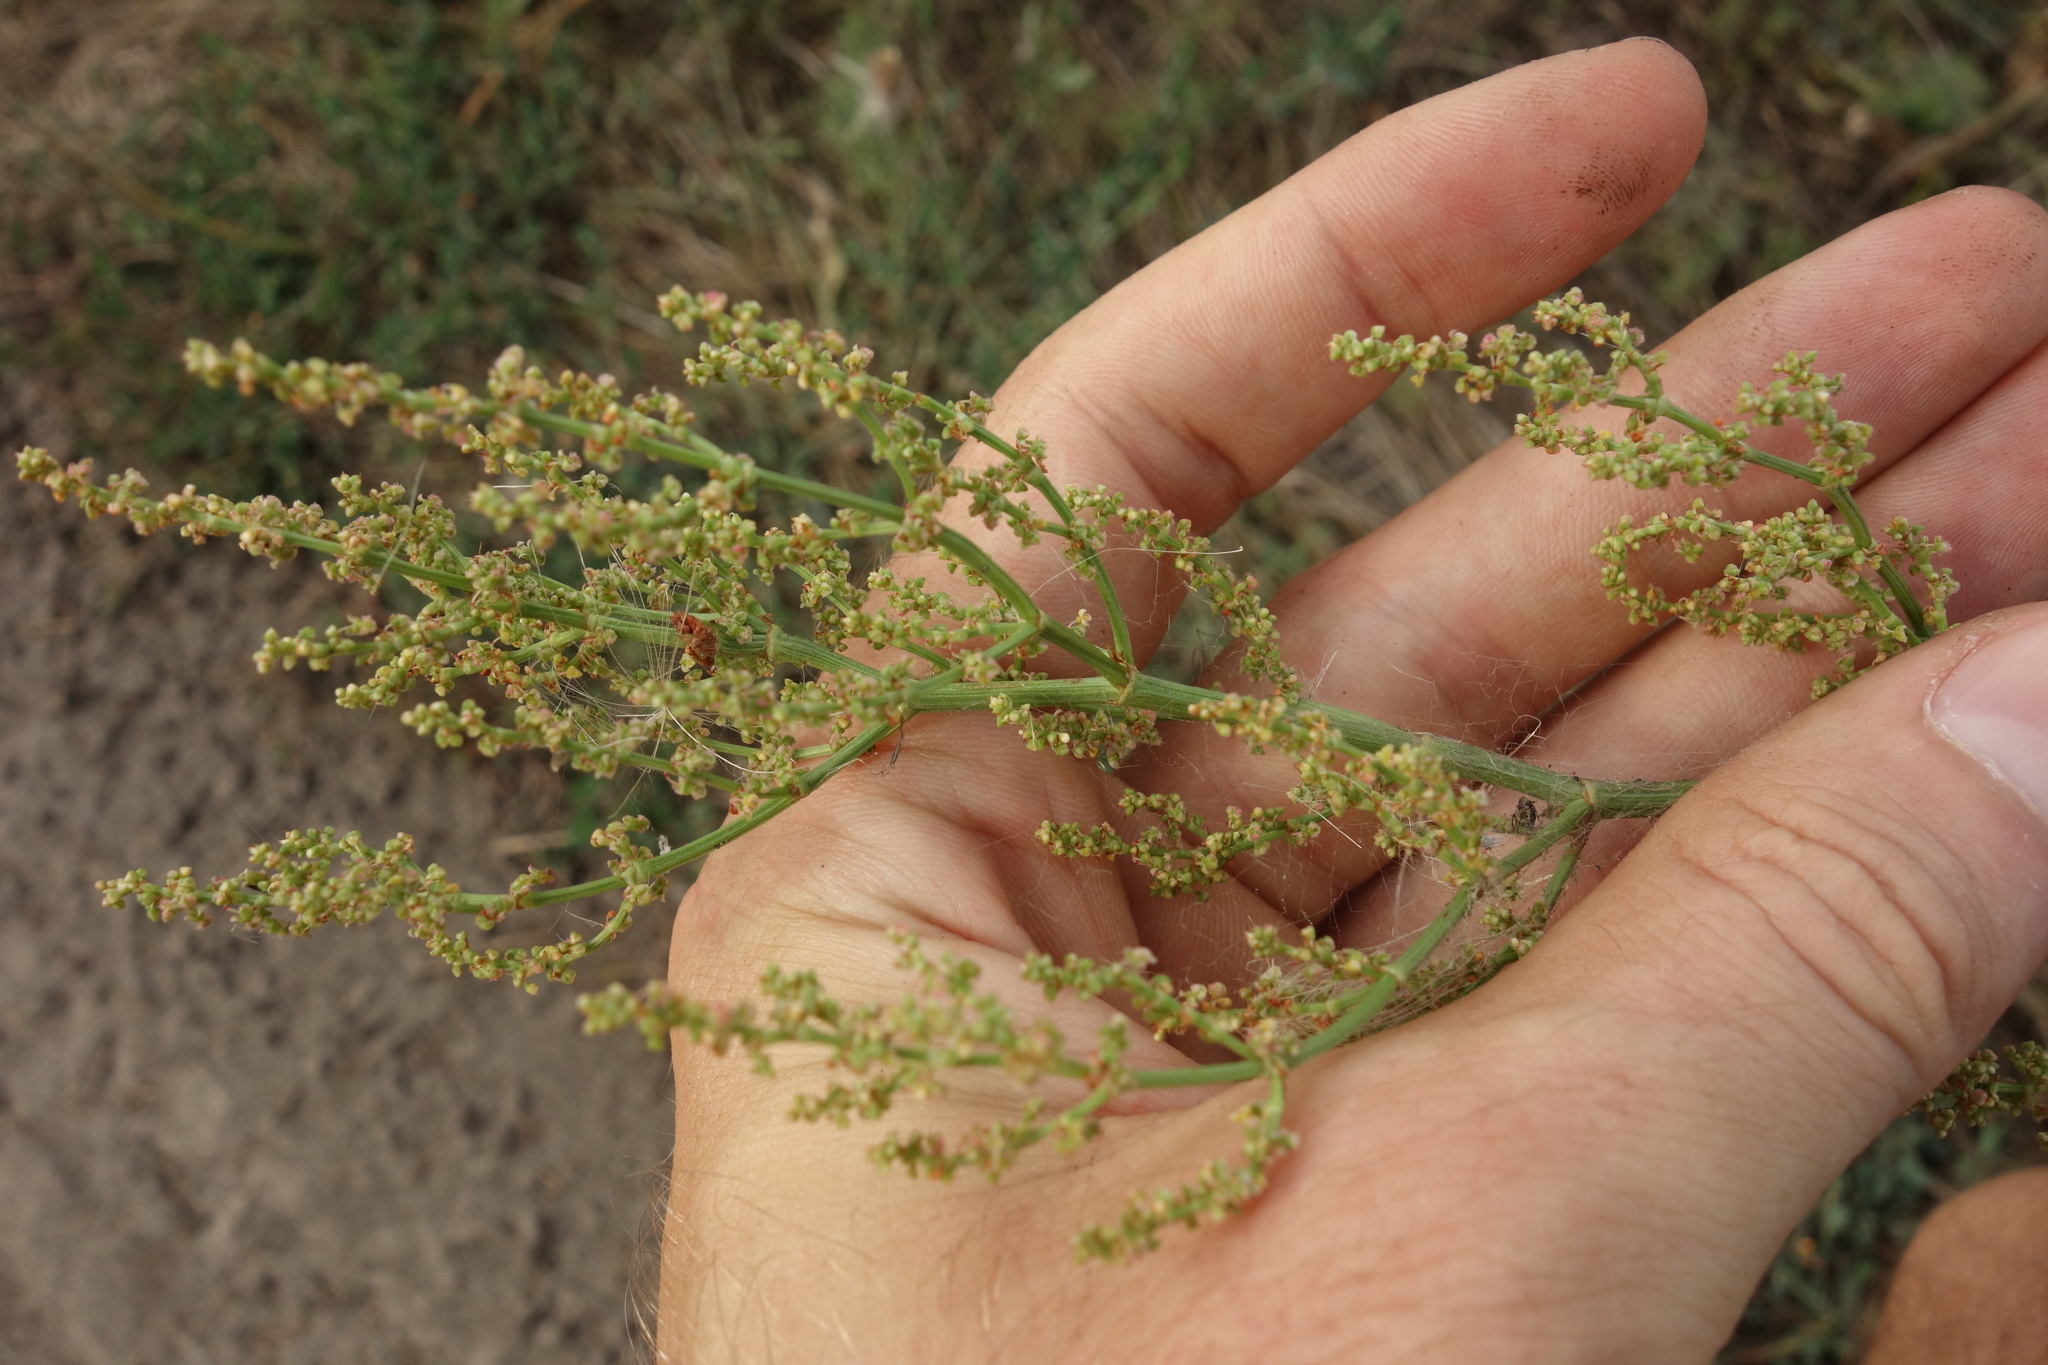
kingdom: Plantae
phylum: Tracheophyta
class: Magnoliopsida
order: Caryophyllales
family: Polygonaceae
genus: Rumex
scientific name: Rumex thyrsiflorus
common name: Garden sorrel
